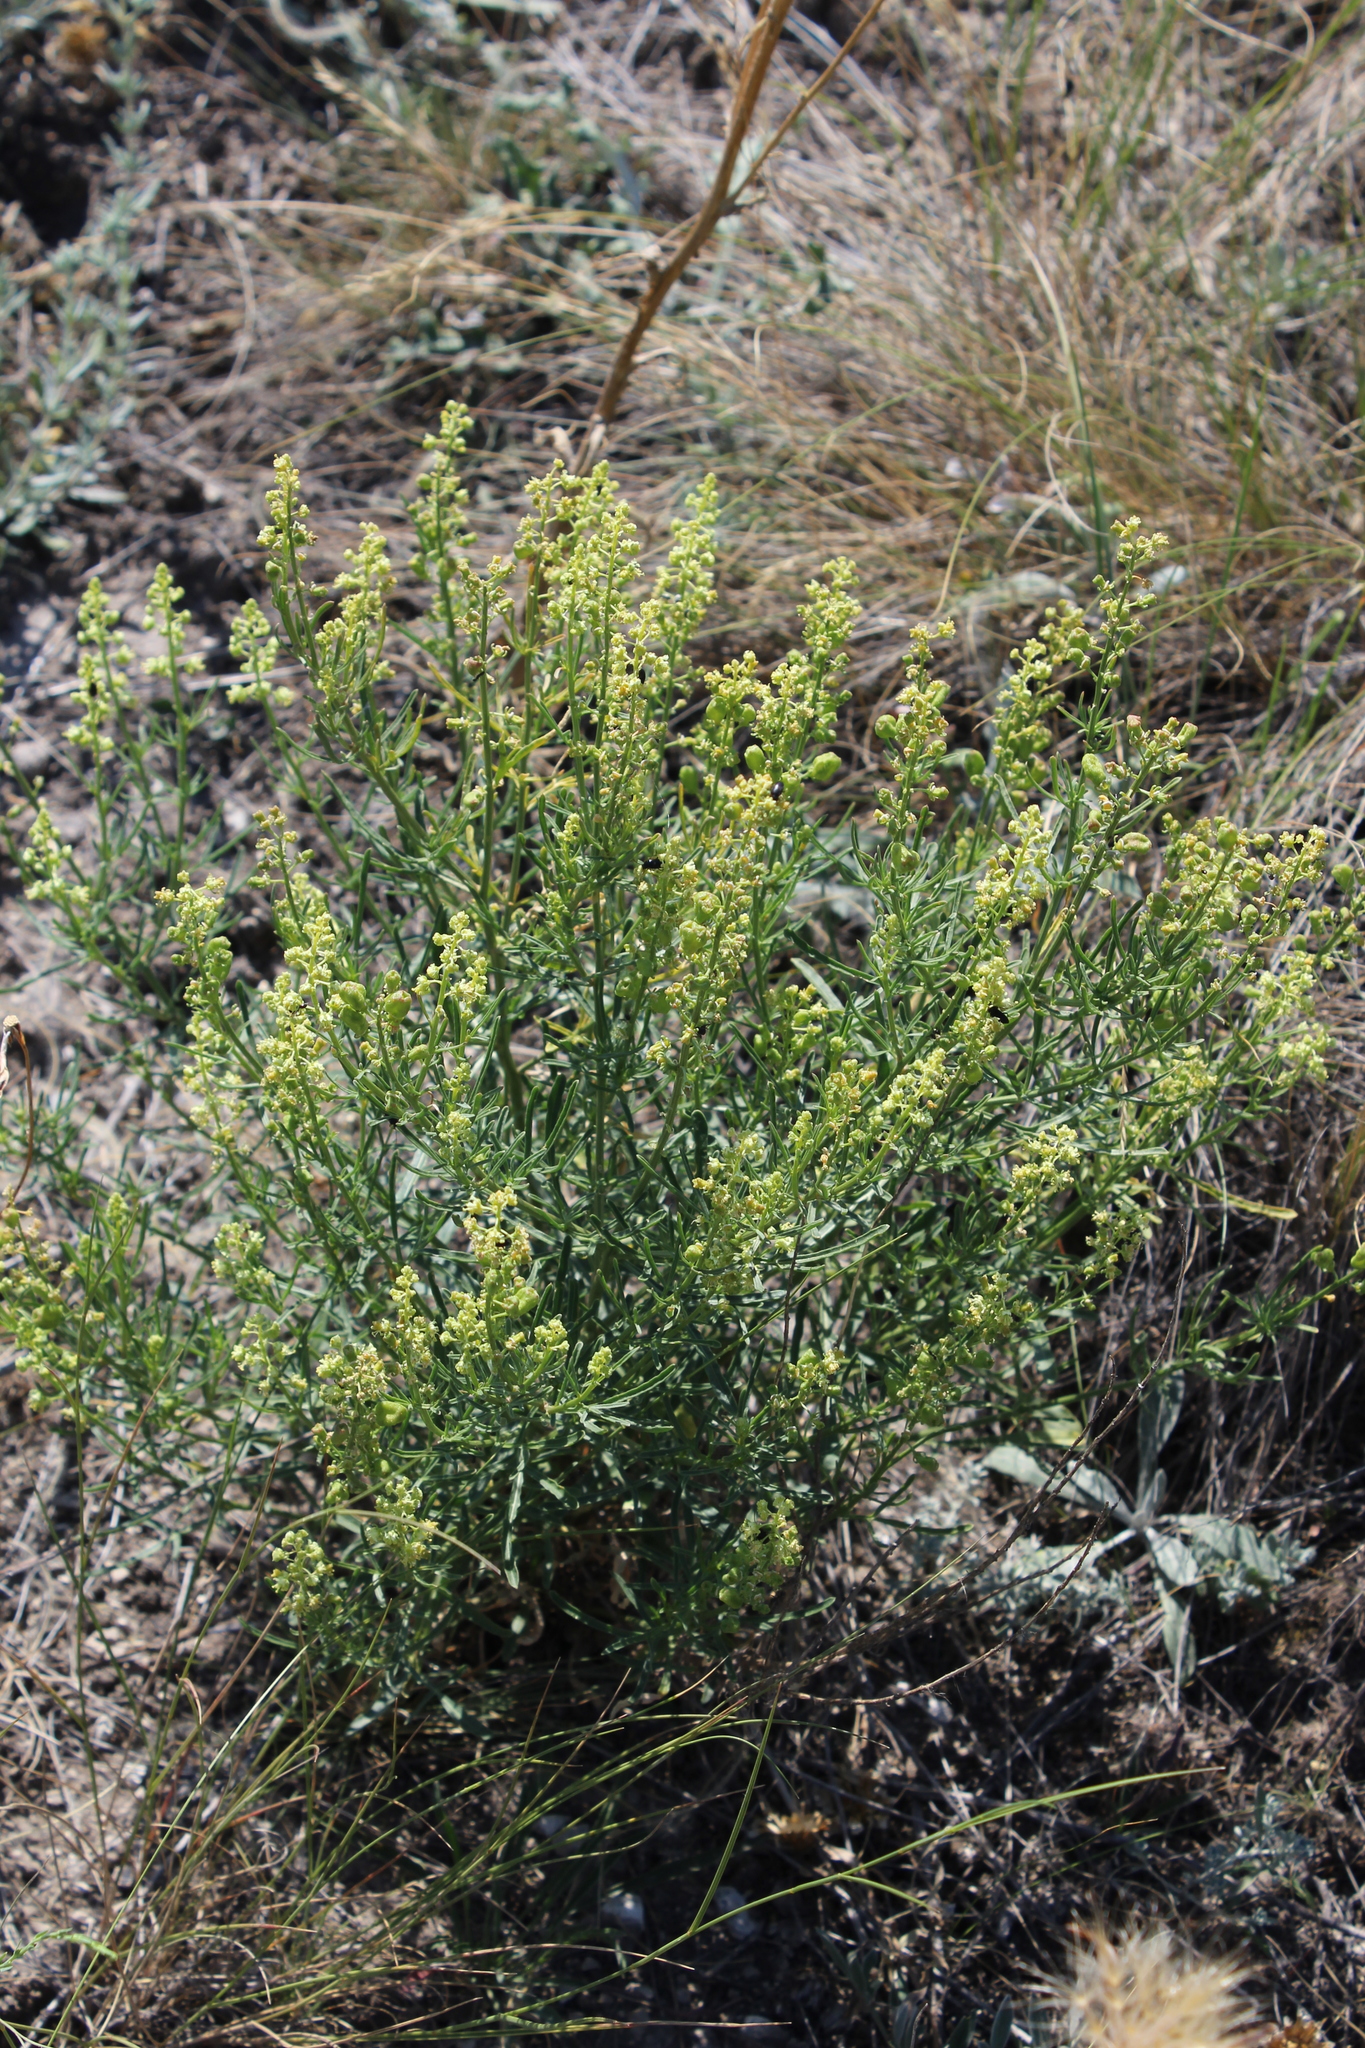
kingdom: Plantae
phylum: Tracheophyta
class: Magnoliopsida
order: Brassicales
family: Resedaceae
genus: Reseda
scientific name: Reseda lutea
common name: Wild mignonette
